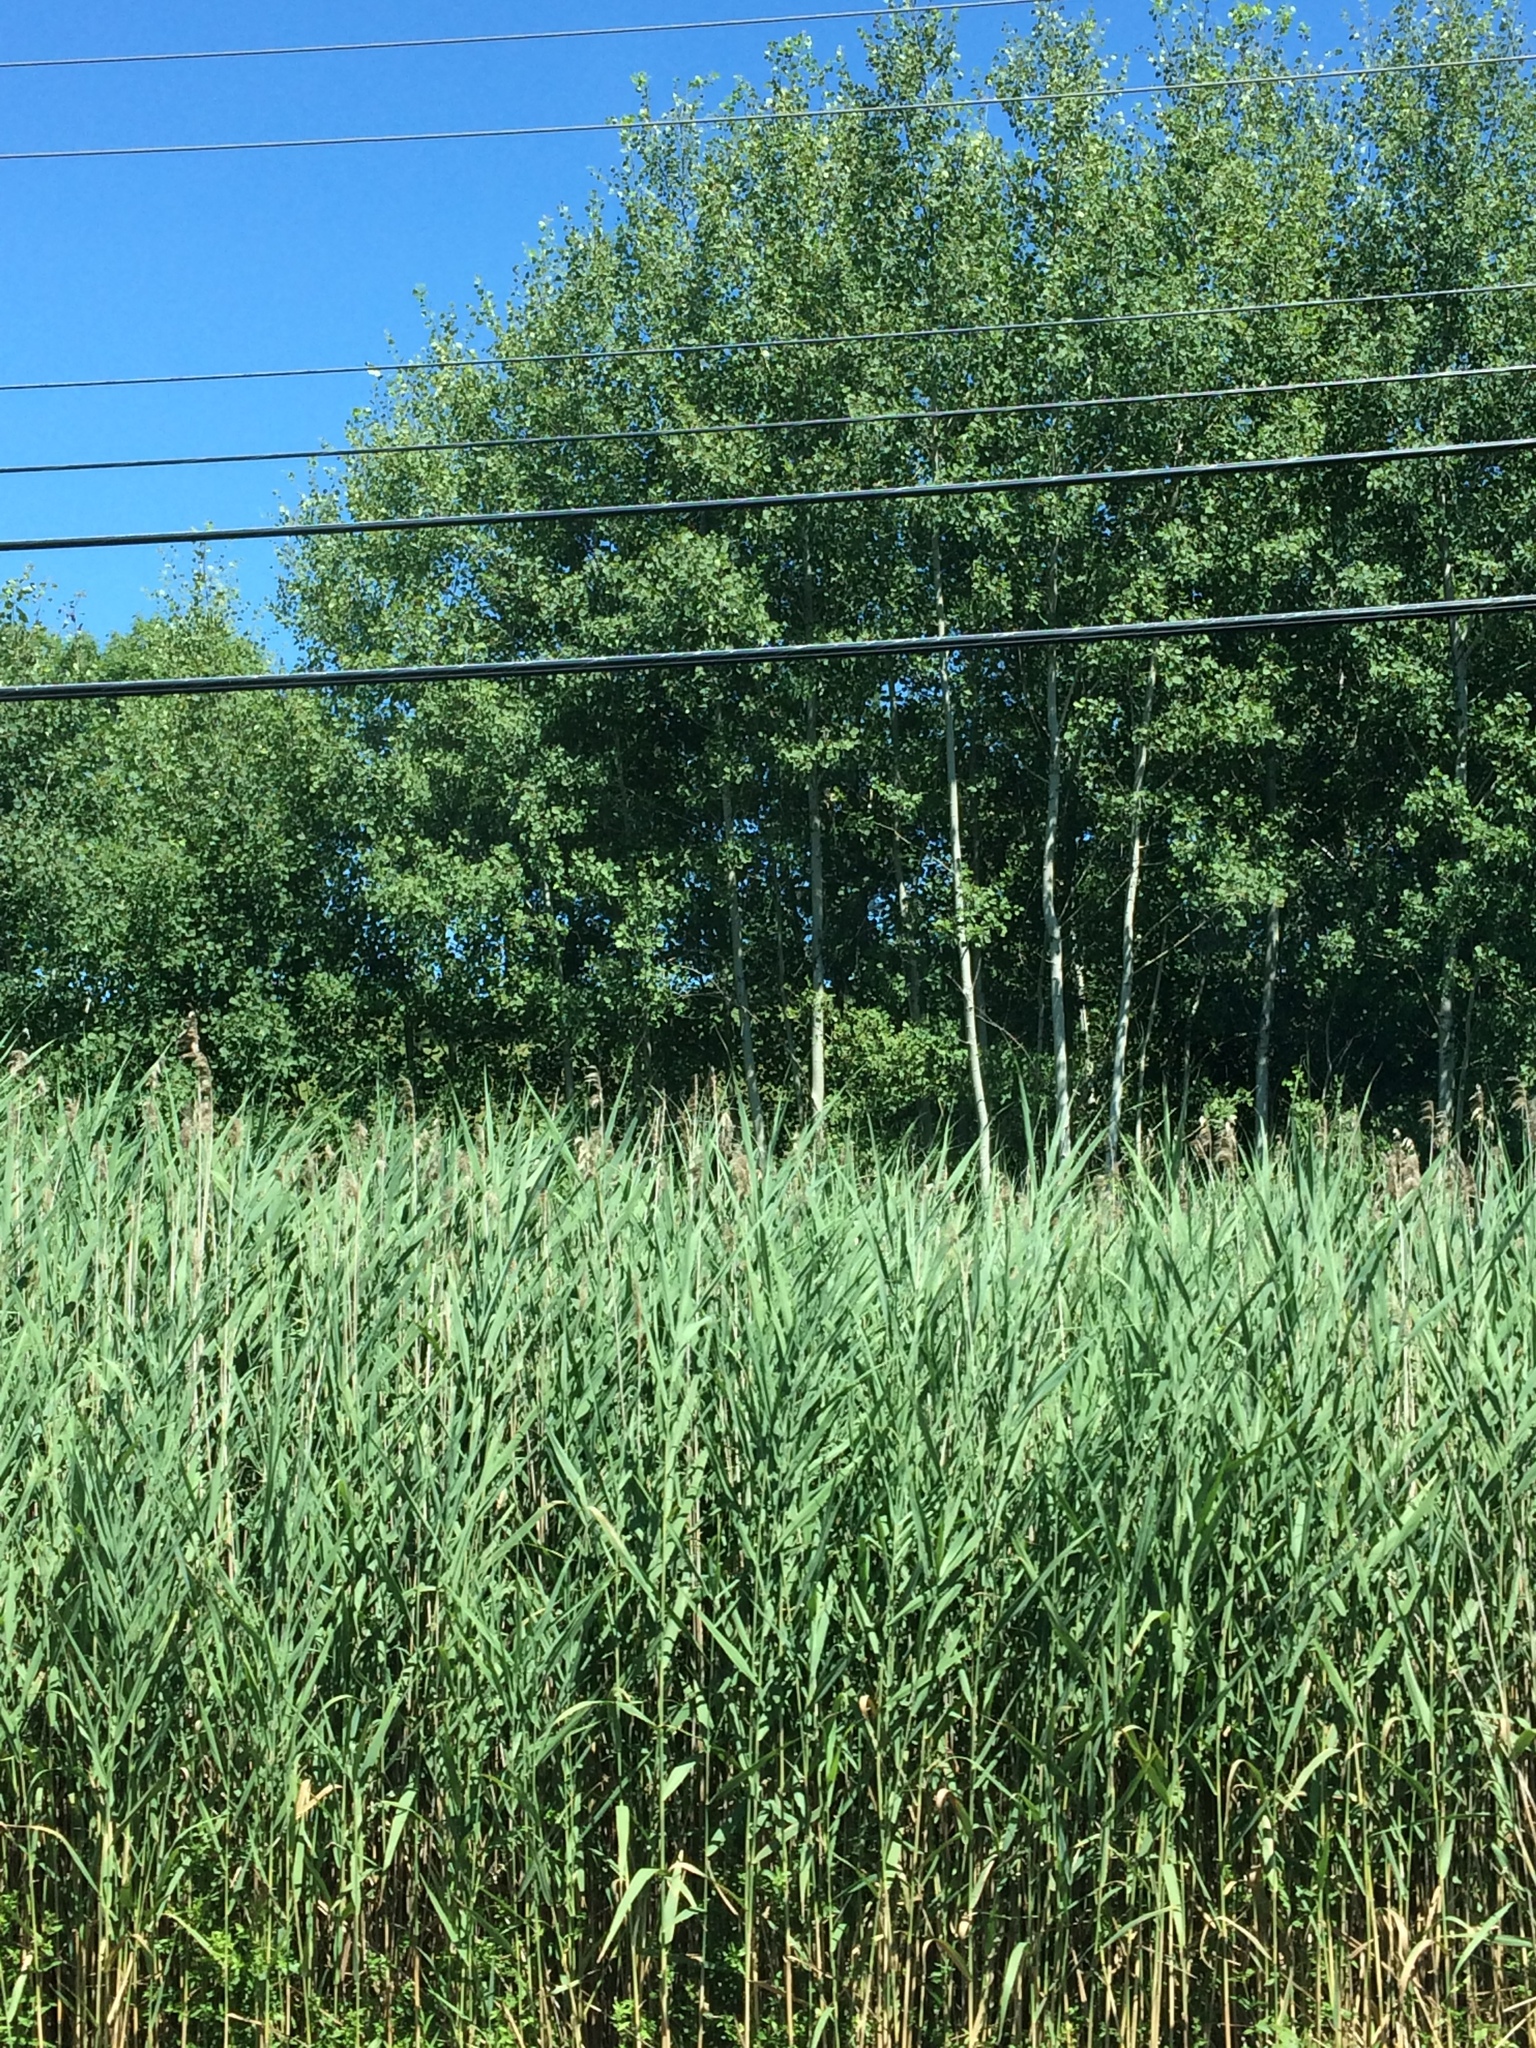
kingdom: Plantae
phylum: Tracheophyta
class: Magnoliopsida
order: Malpighiales
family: Salicaceae
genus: Populus
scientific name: Populus tremuloides
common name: Quaking aspen
